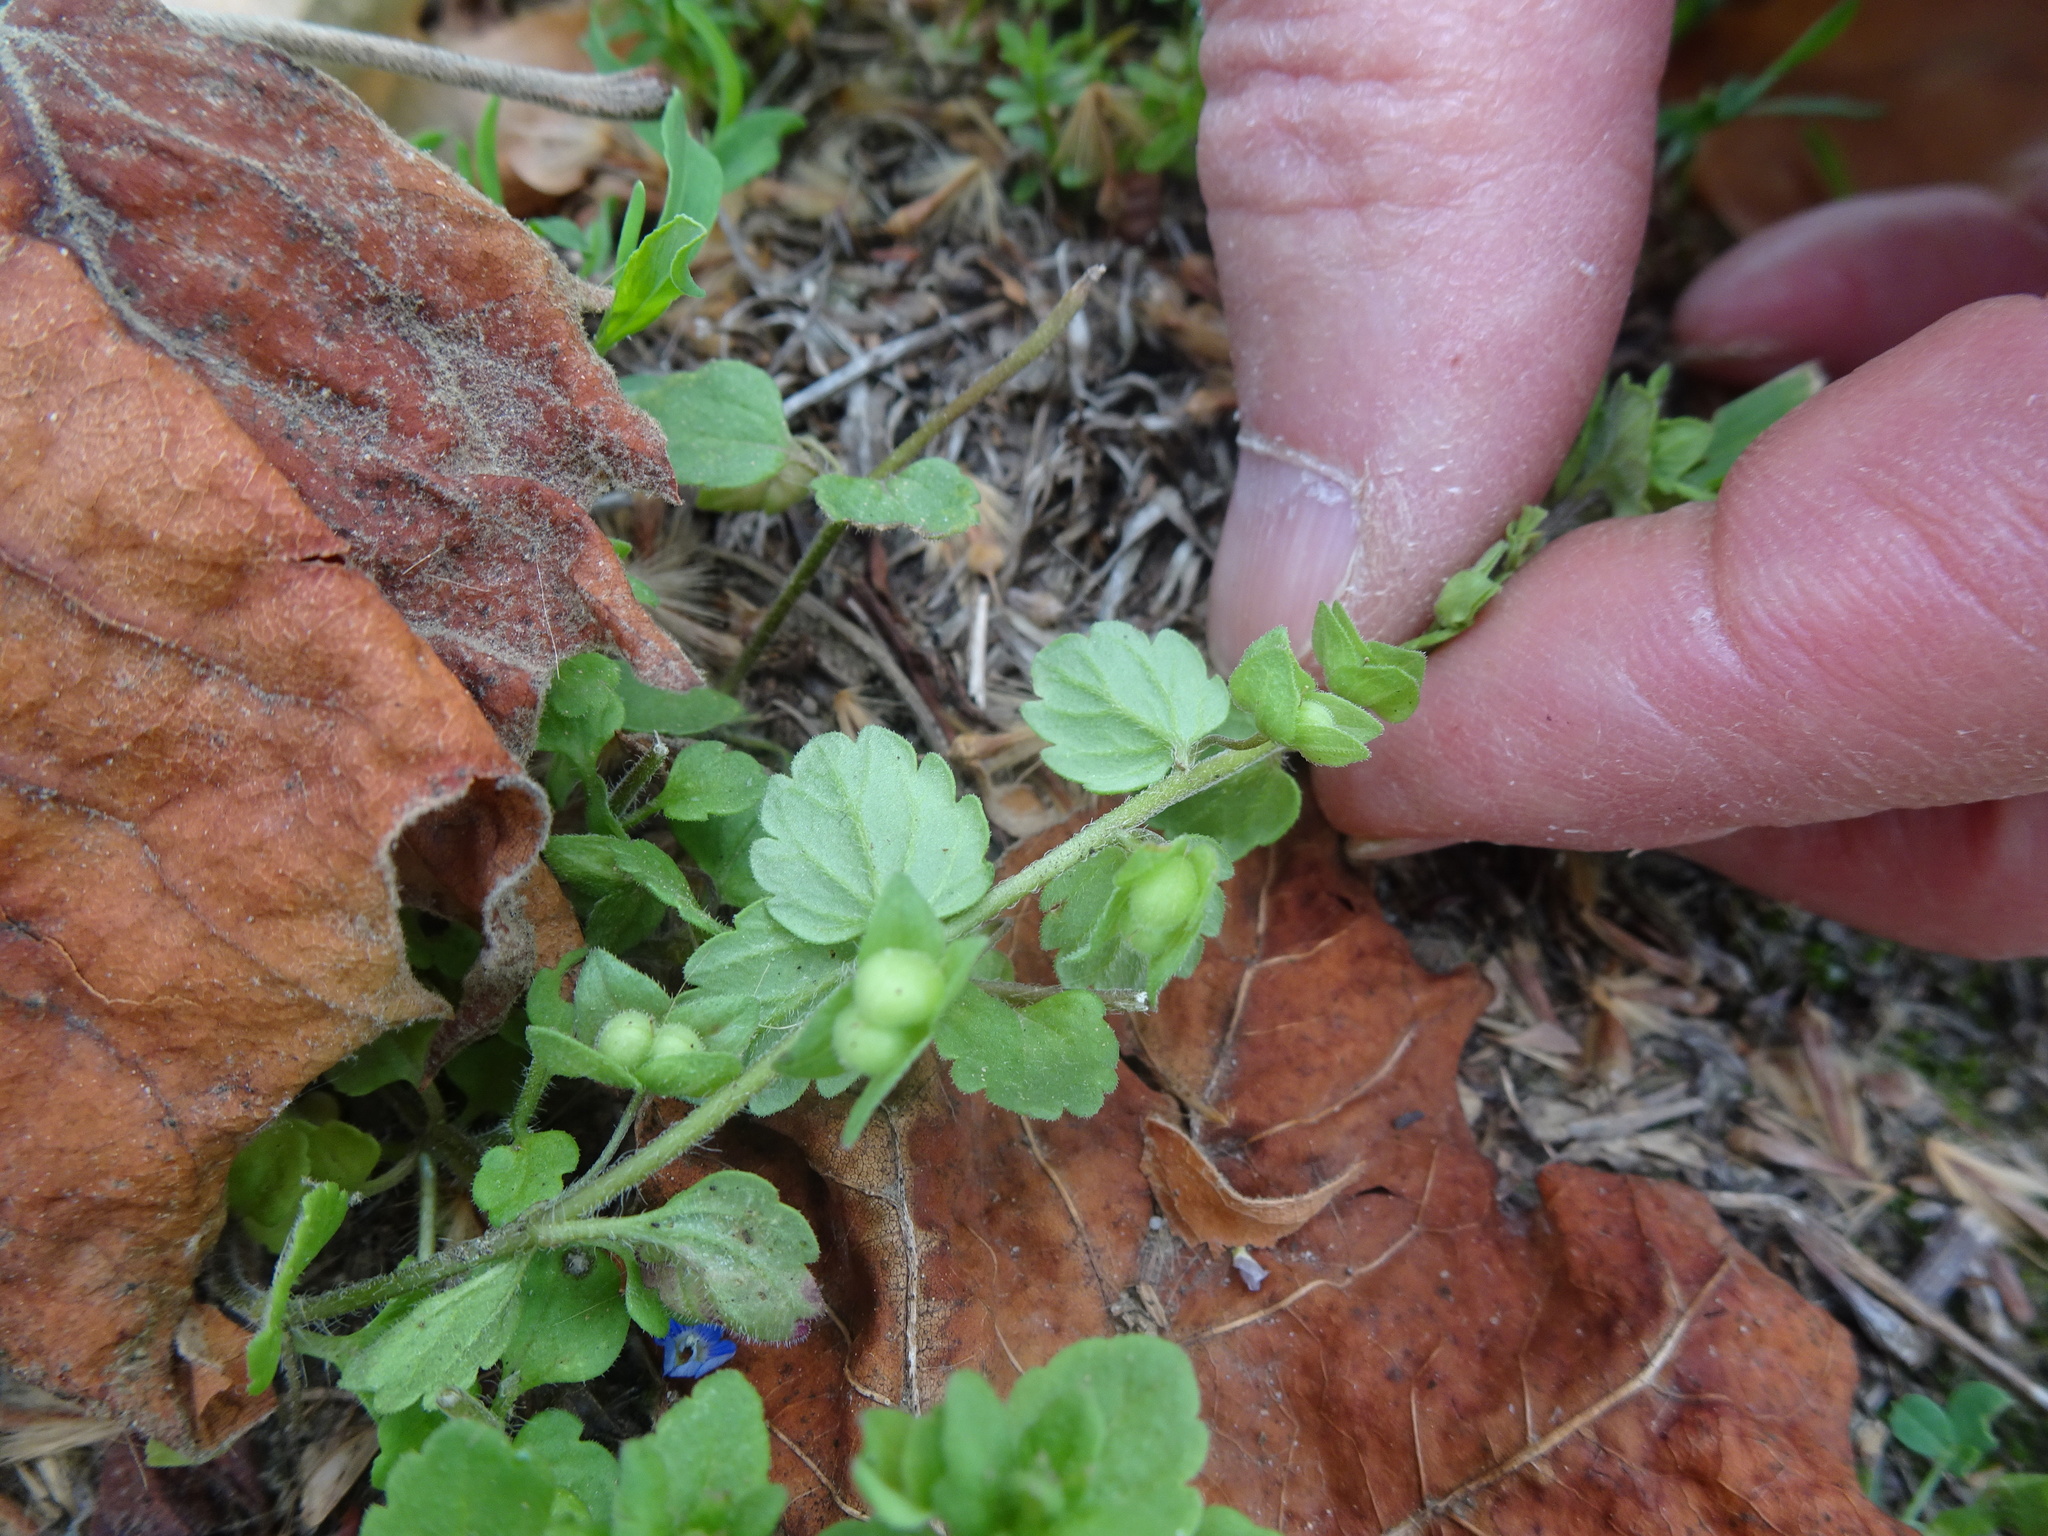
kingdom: Plantae
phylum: Tracheophyta
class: Magnoliopsida
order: Lamiales
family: Plantaginaceae
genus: Veronica
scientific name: Veronica polita
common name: Grey field-speedwell
